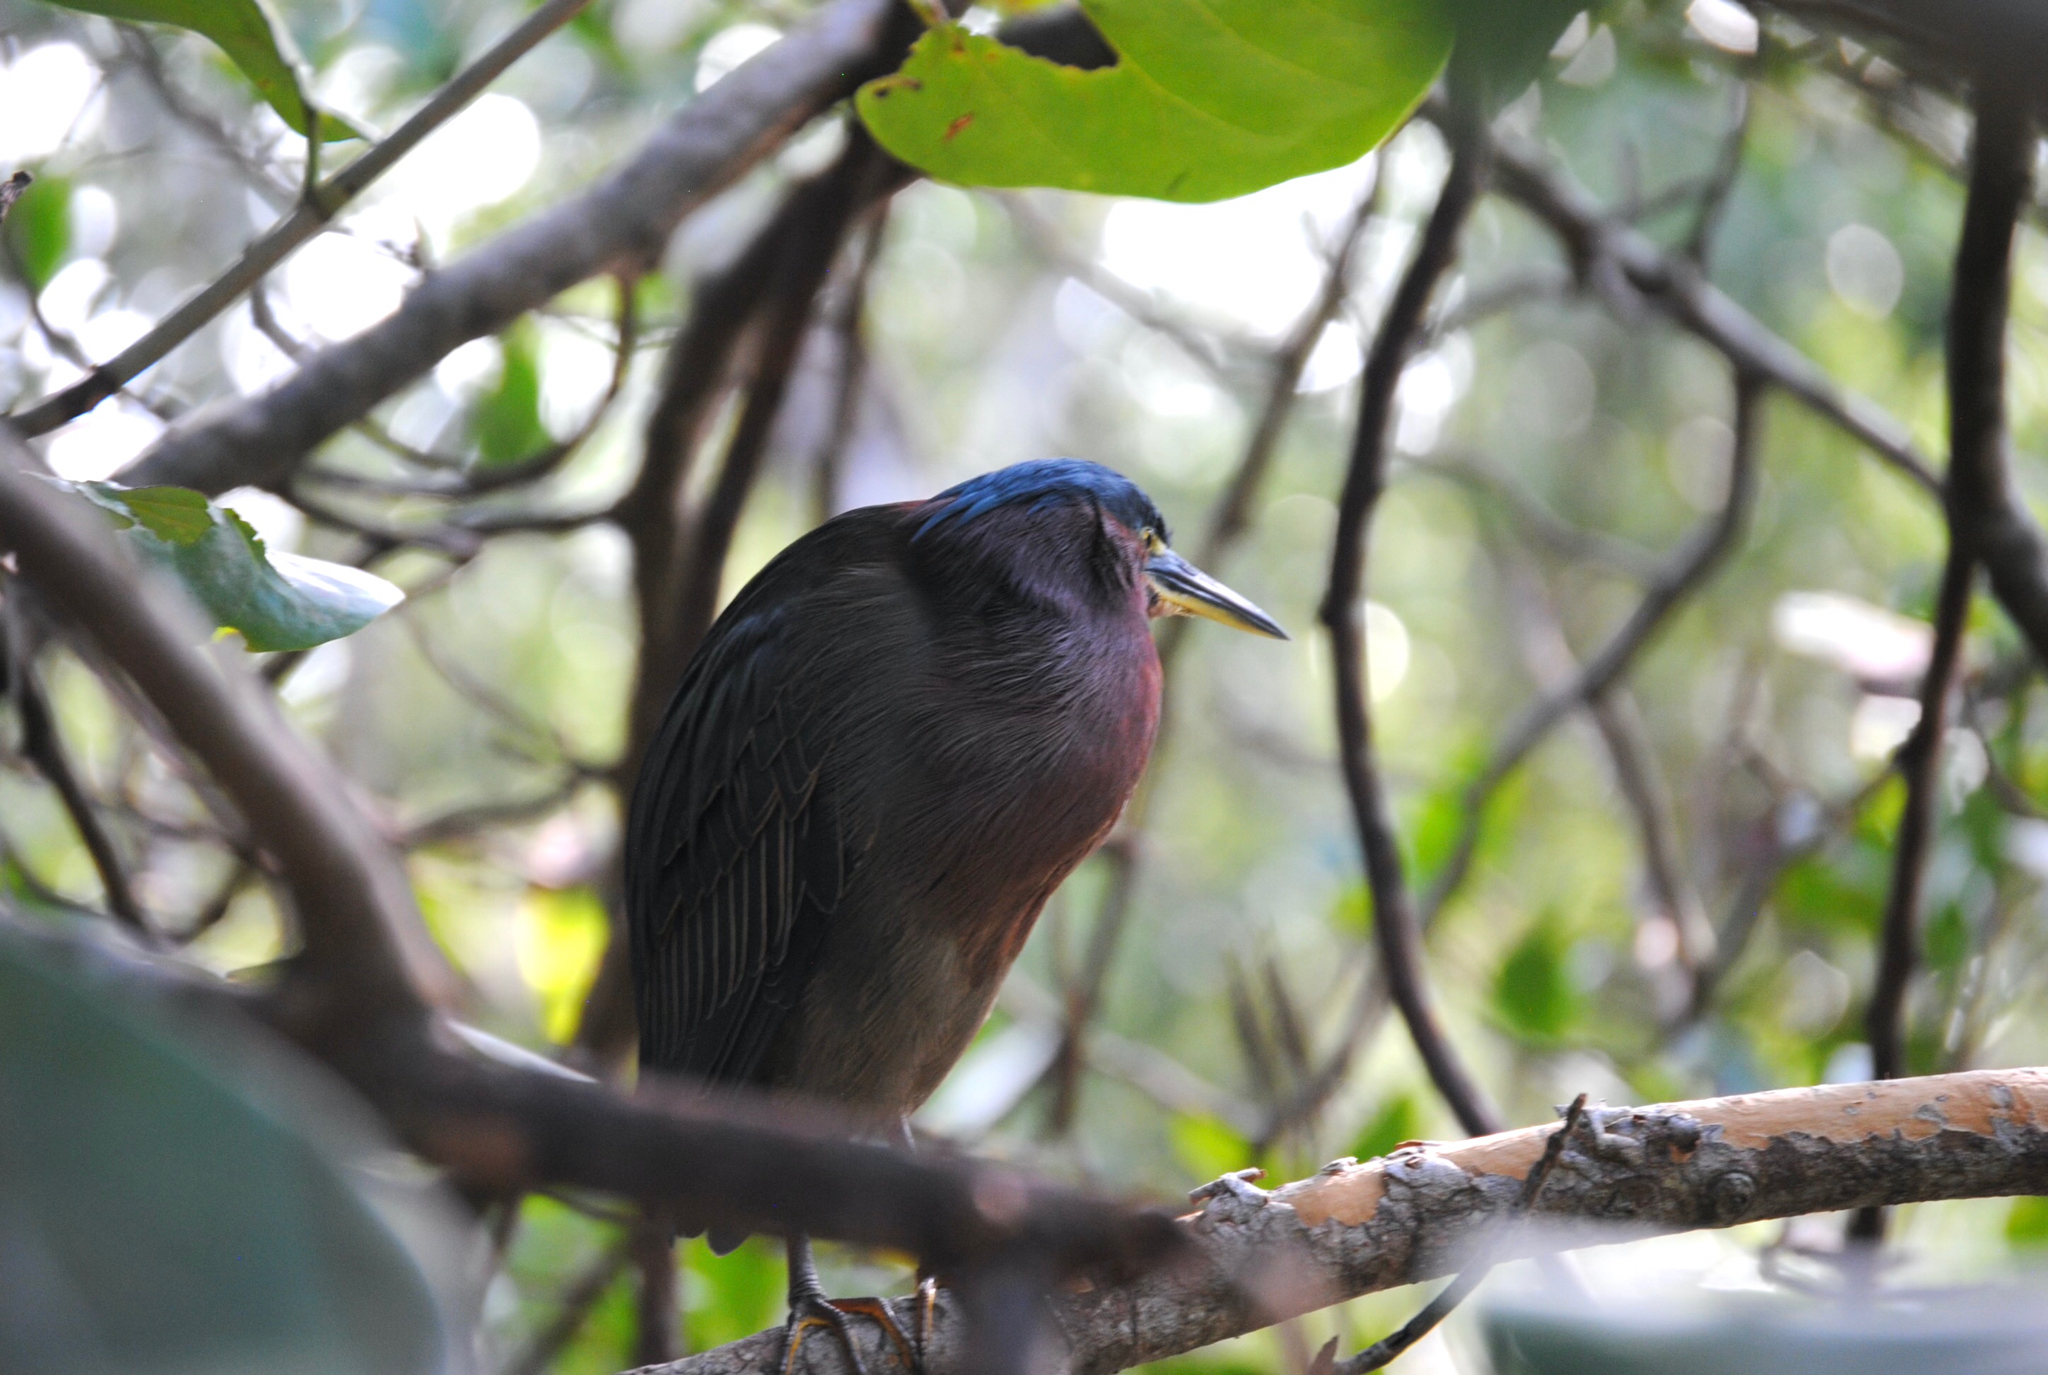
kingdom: Animalia
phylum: Chordata
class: Aves
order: Pelecaniformes
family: Ardeidae
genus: Butorides
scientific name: Butorides virescens
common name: Green heron
